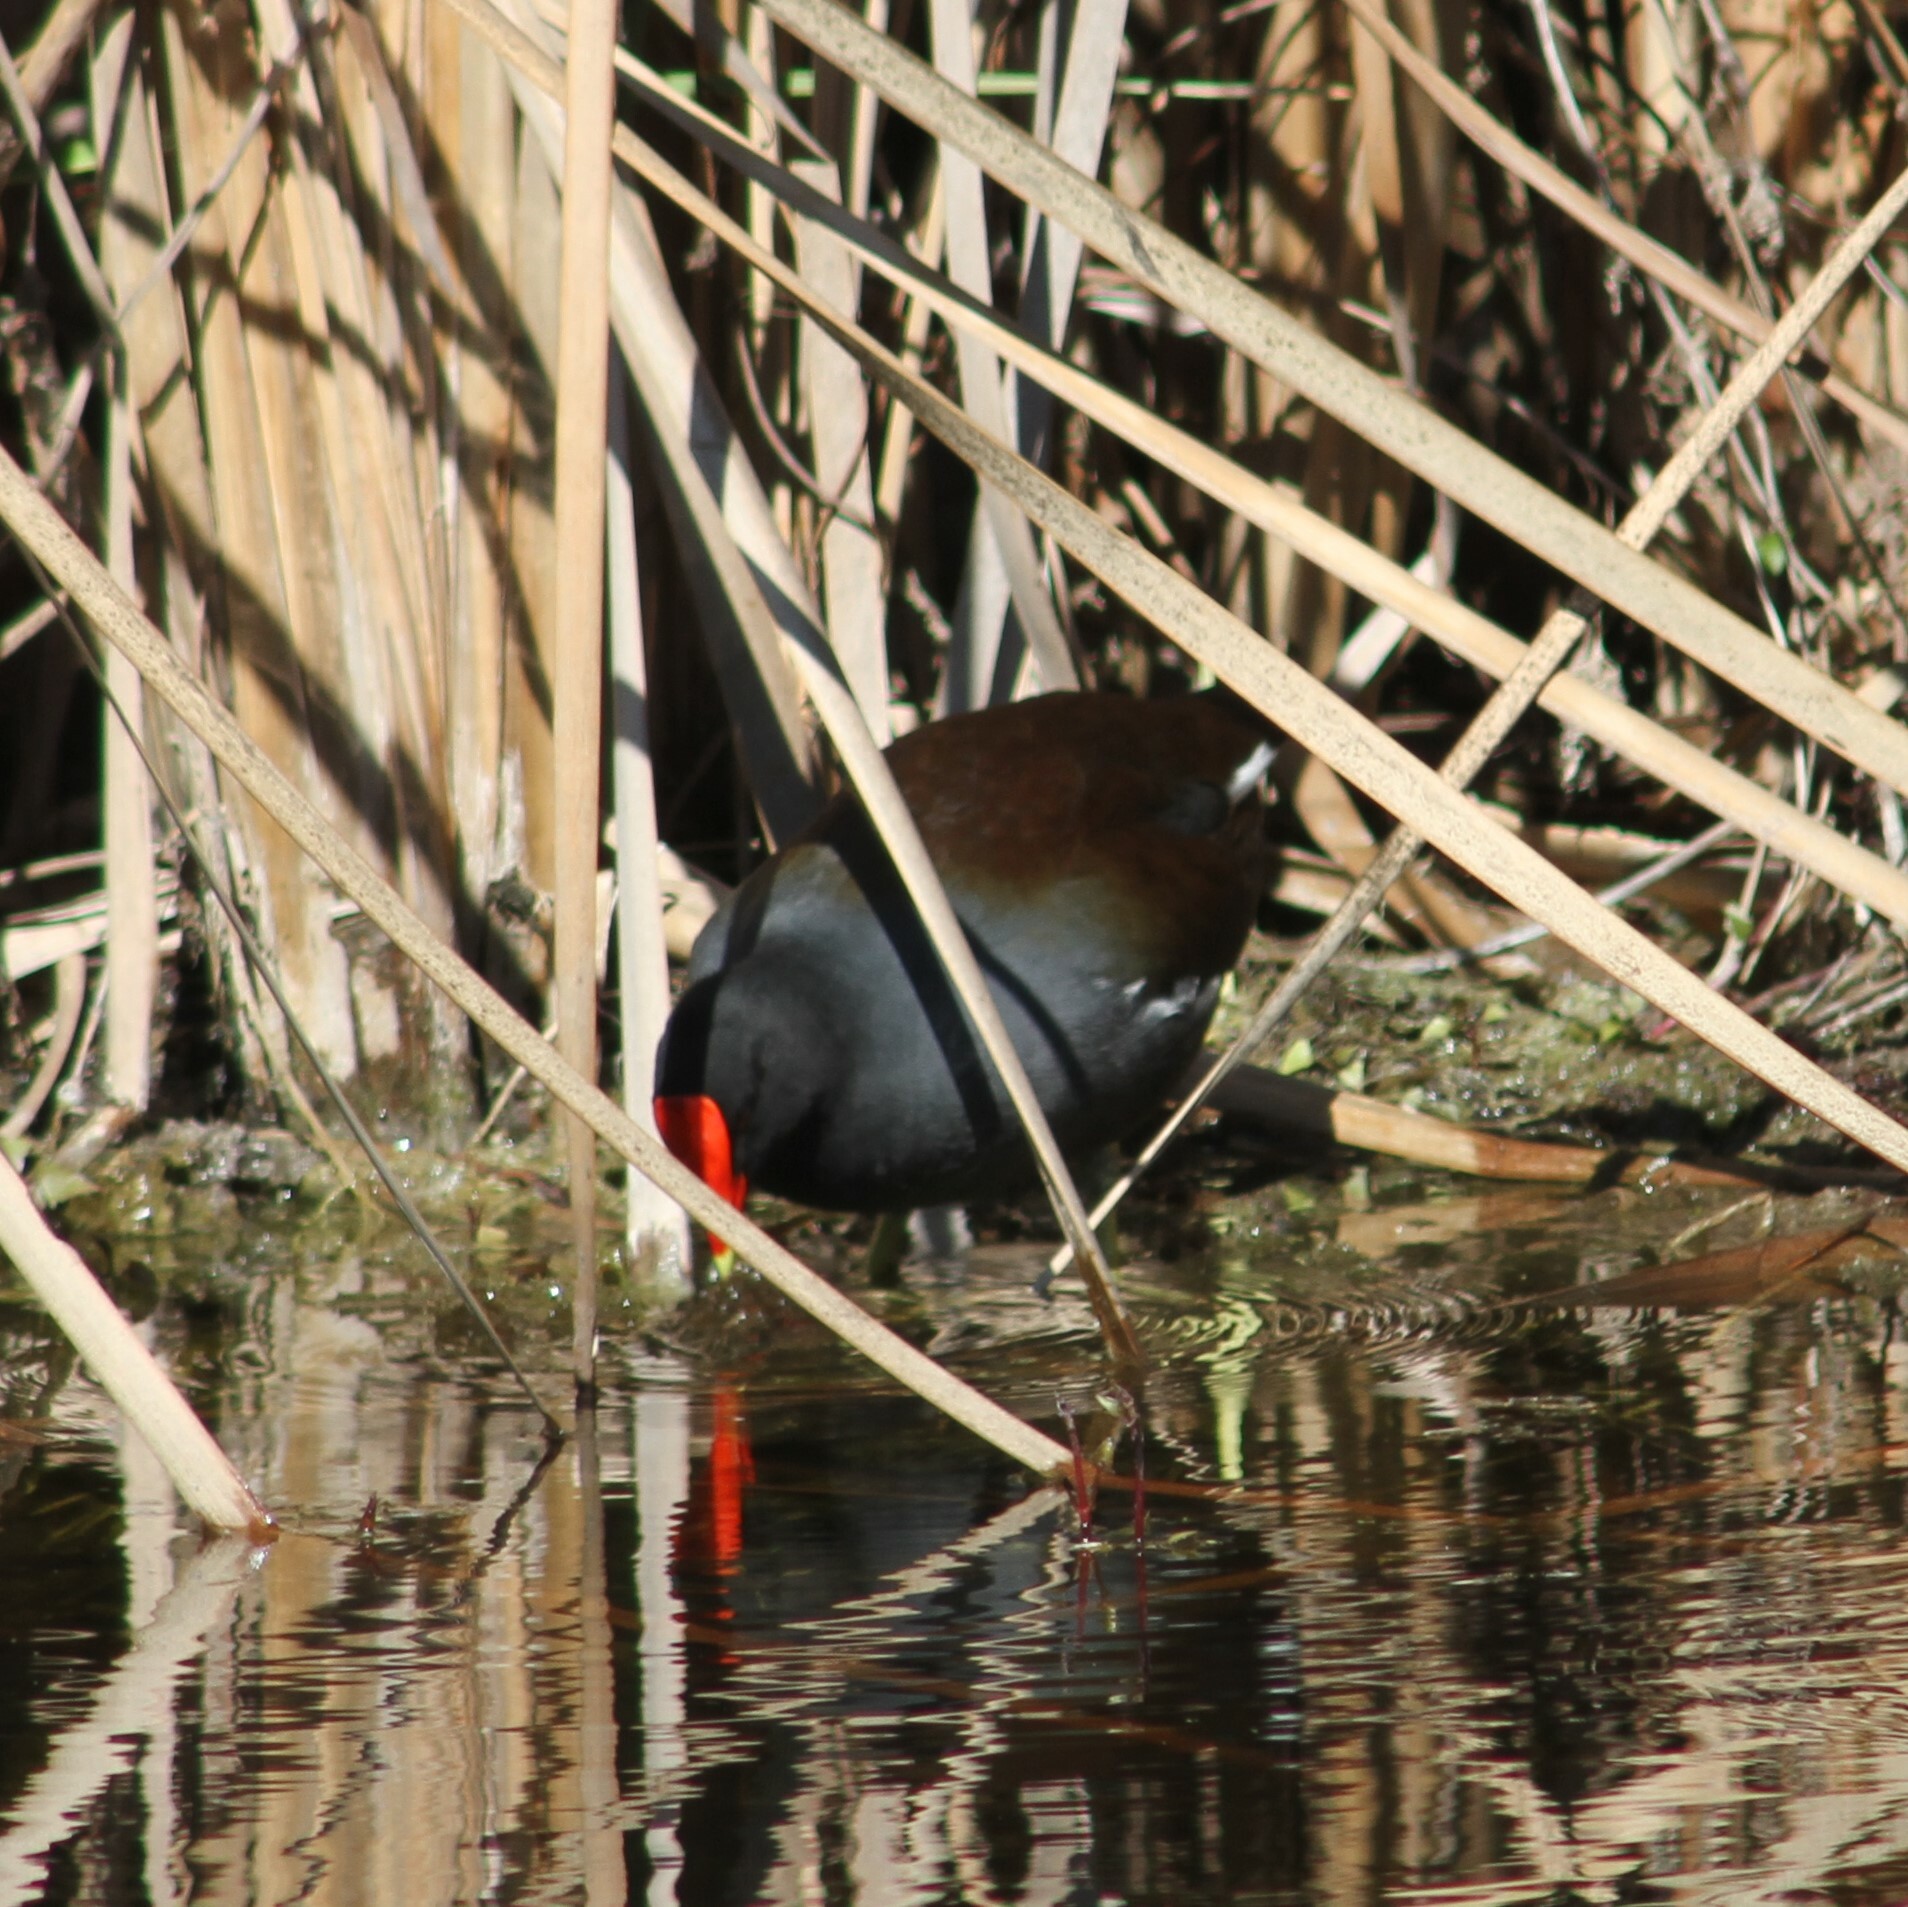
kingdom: Animalia
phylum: Chordata
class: Aves
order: Gruiformes
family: Rallidae
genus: Gallinula
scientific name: Gallinula chloropus
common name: Common moorhen
